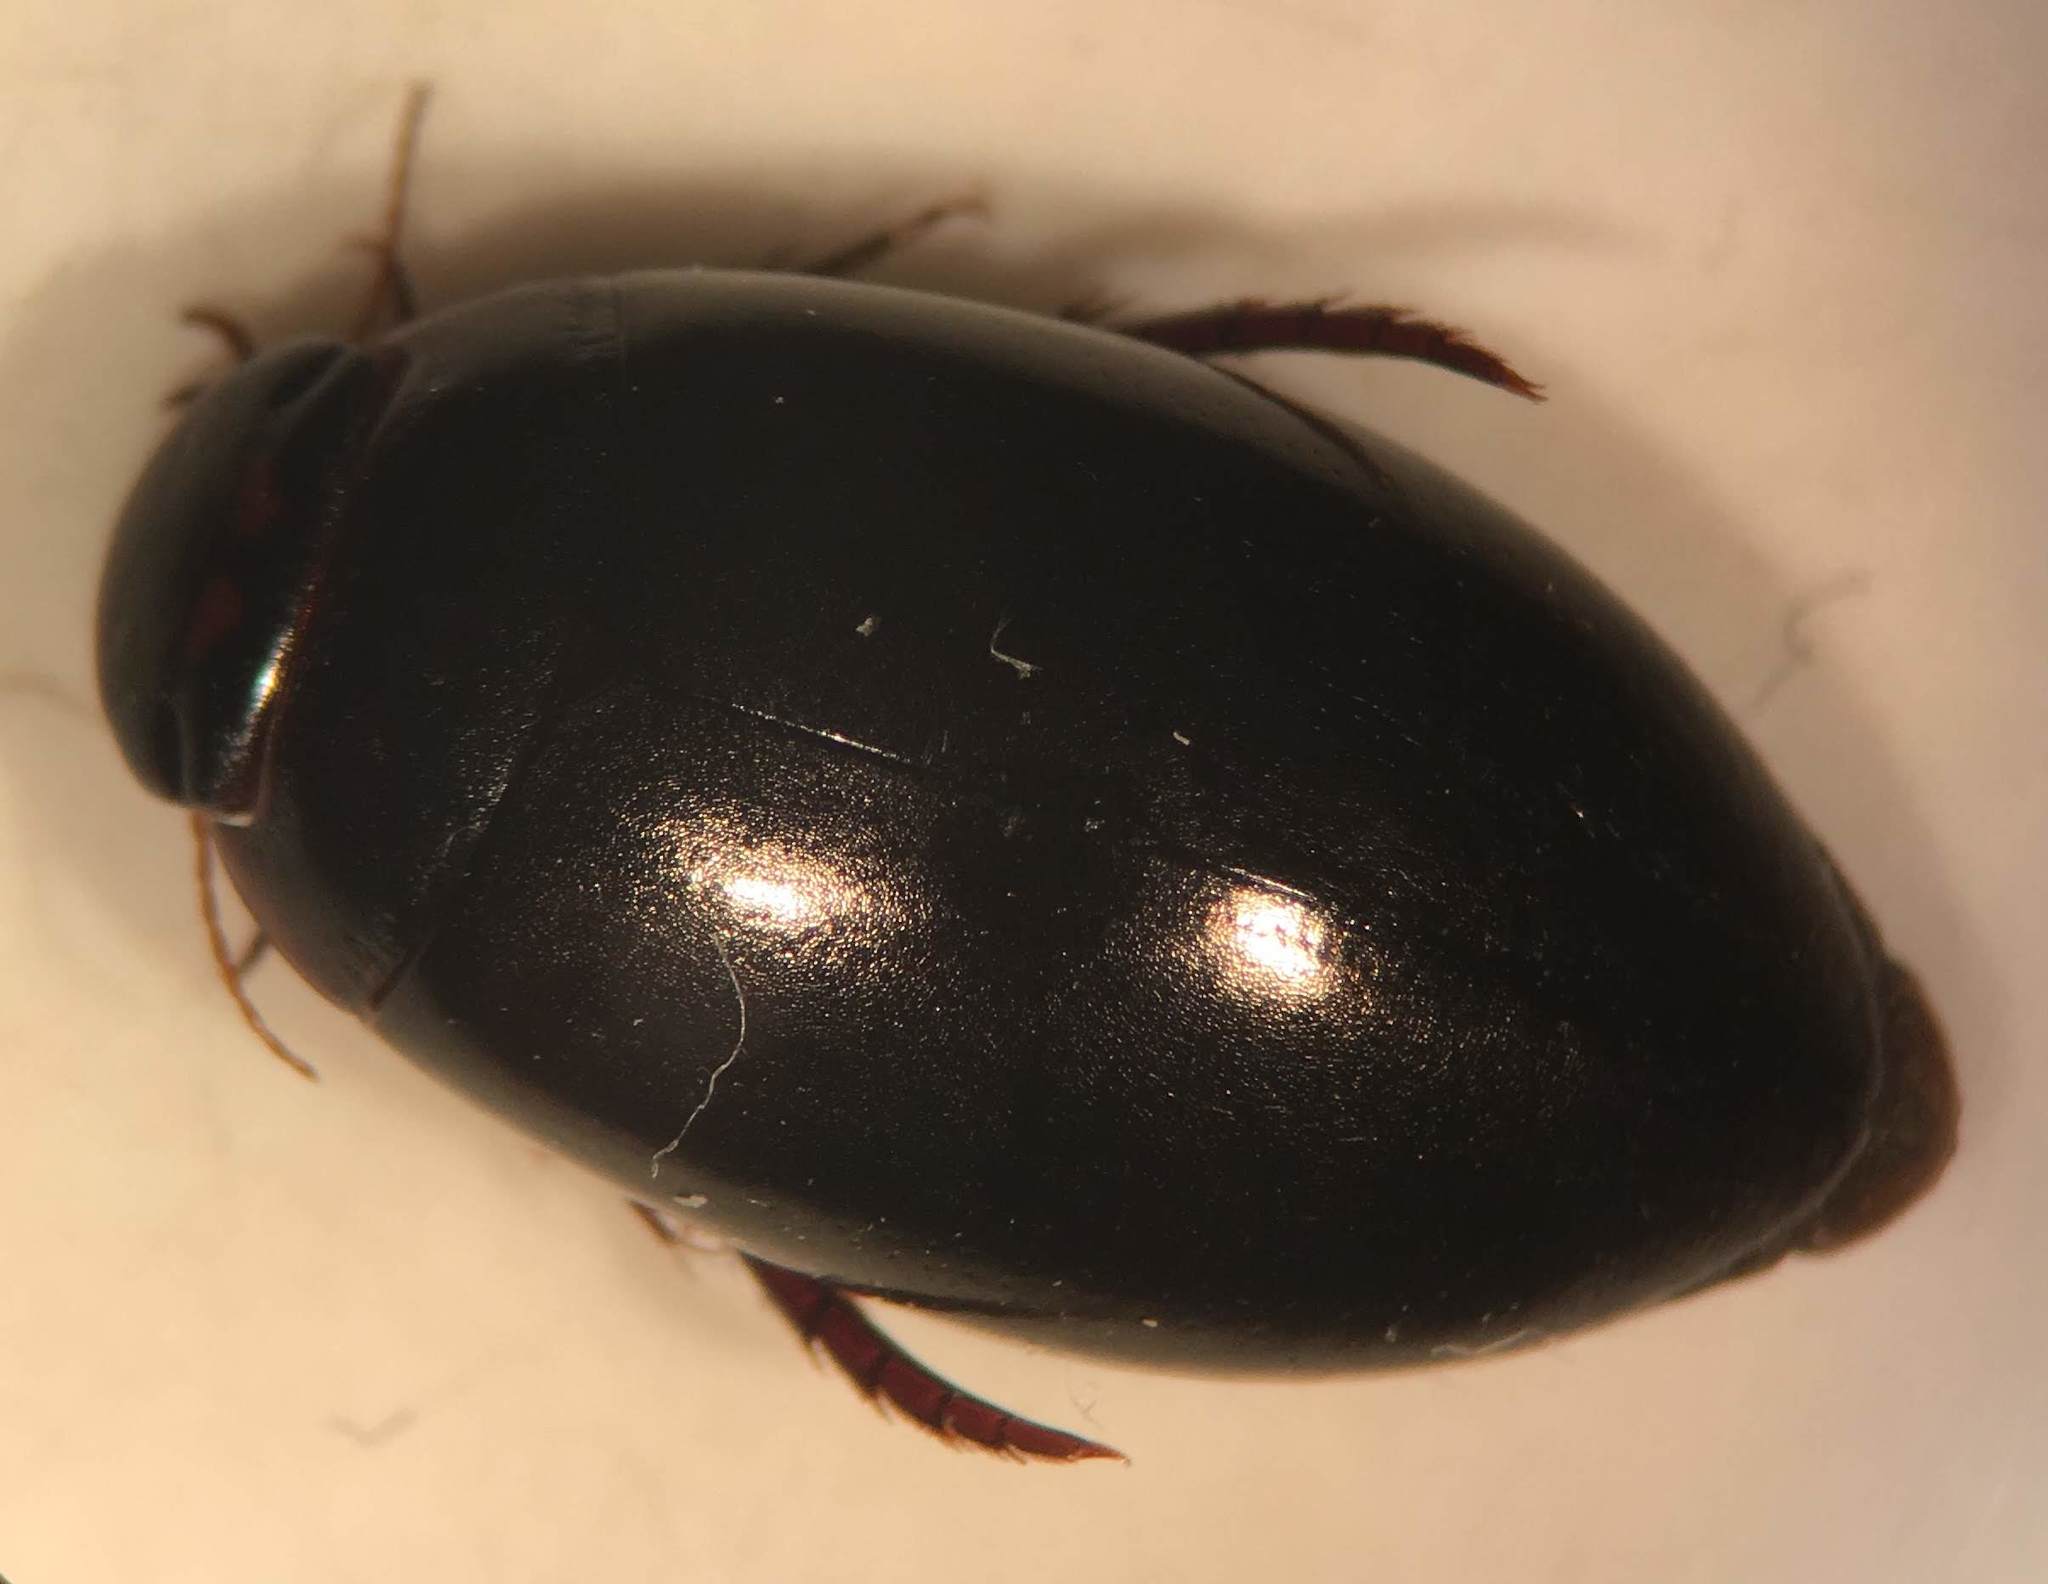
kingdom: Animalia
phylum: Arthropoda
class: Insecta
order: Coleoptera
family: Dytiscidae
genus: Ilybius
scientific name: Ilybius gagates
